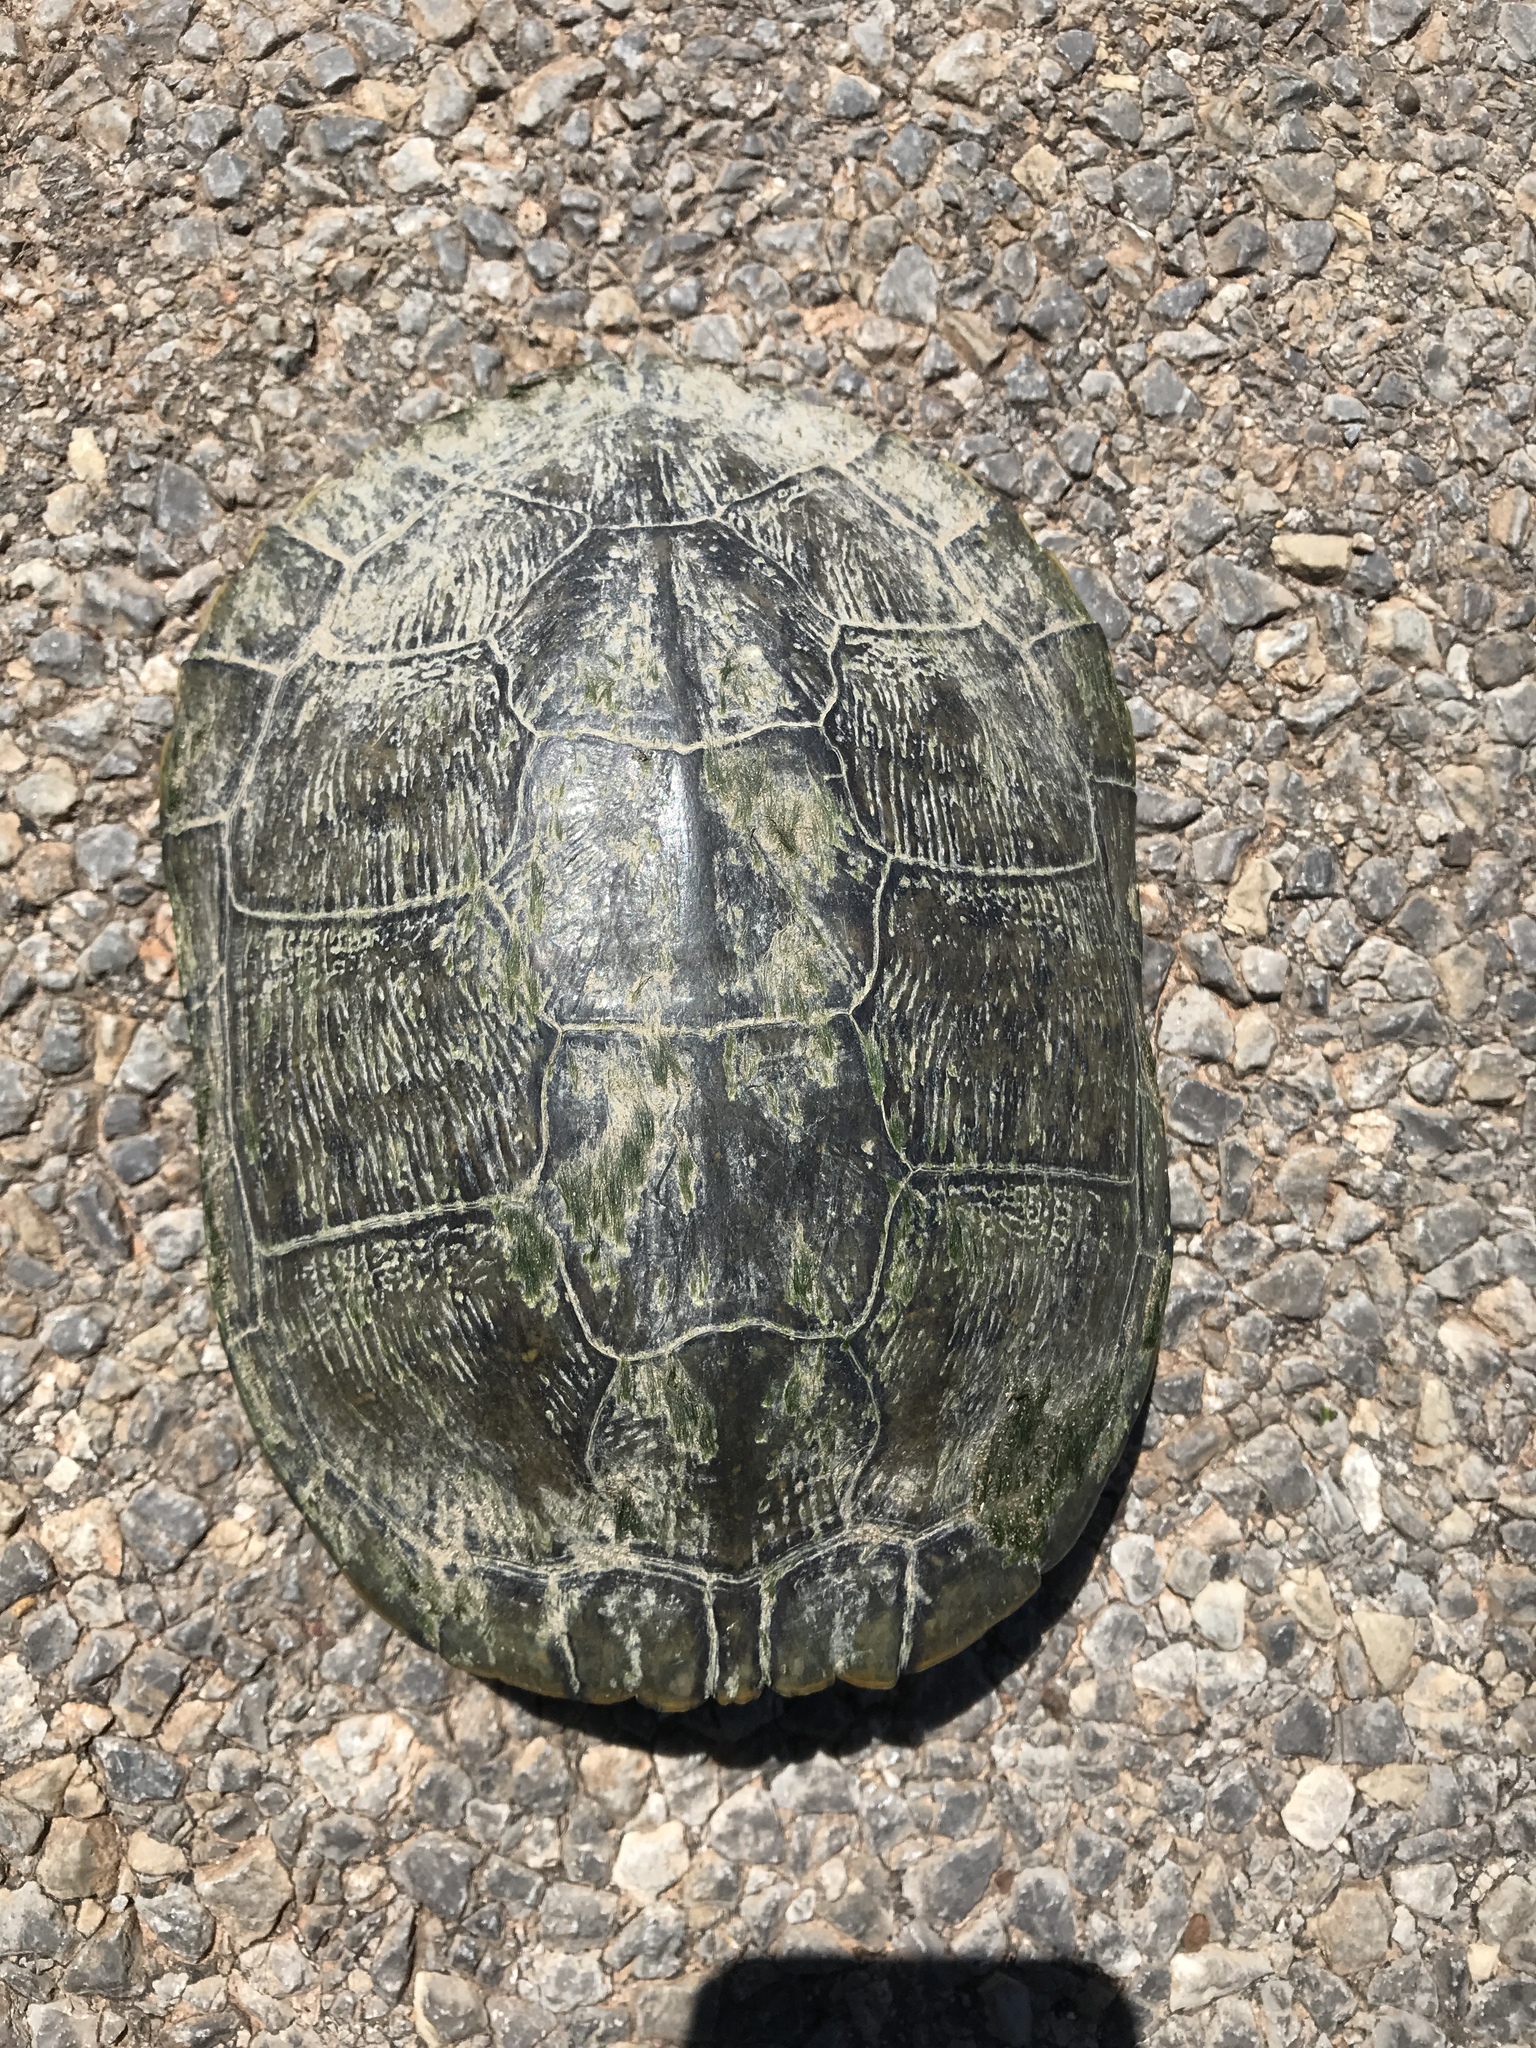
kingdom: Animalia
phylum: Chordata
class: Testudines
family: Emydidae
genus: Trachemys
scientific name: Trachemys scripta
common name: Slider
